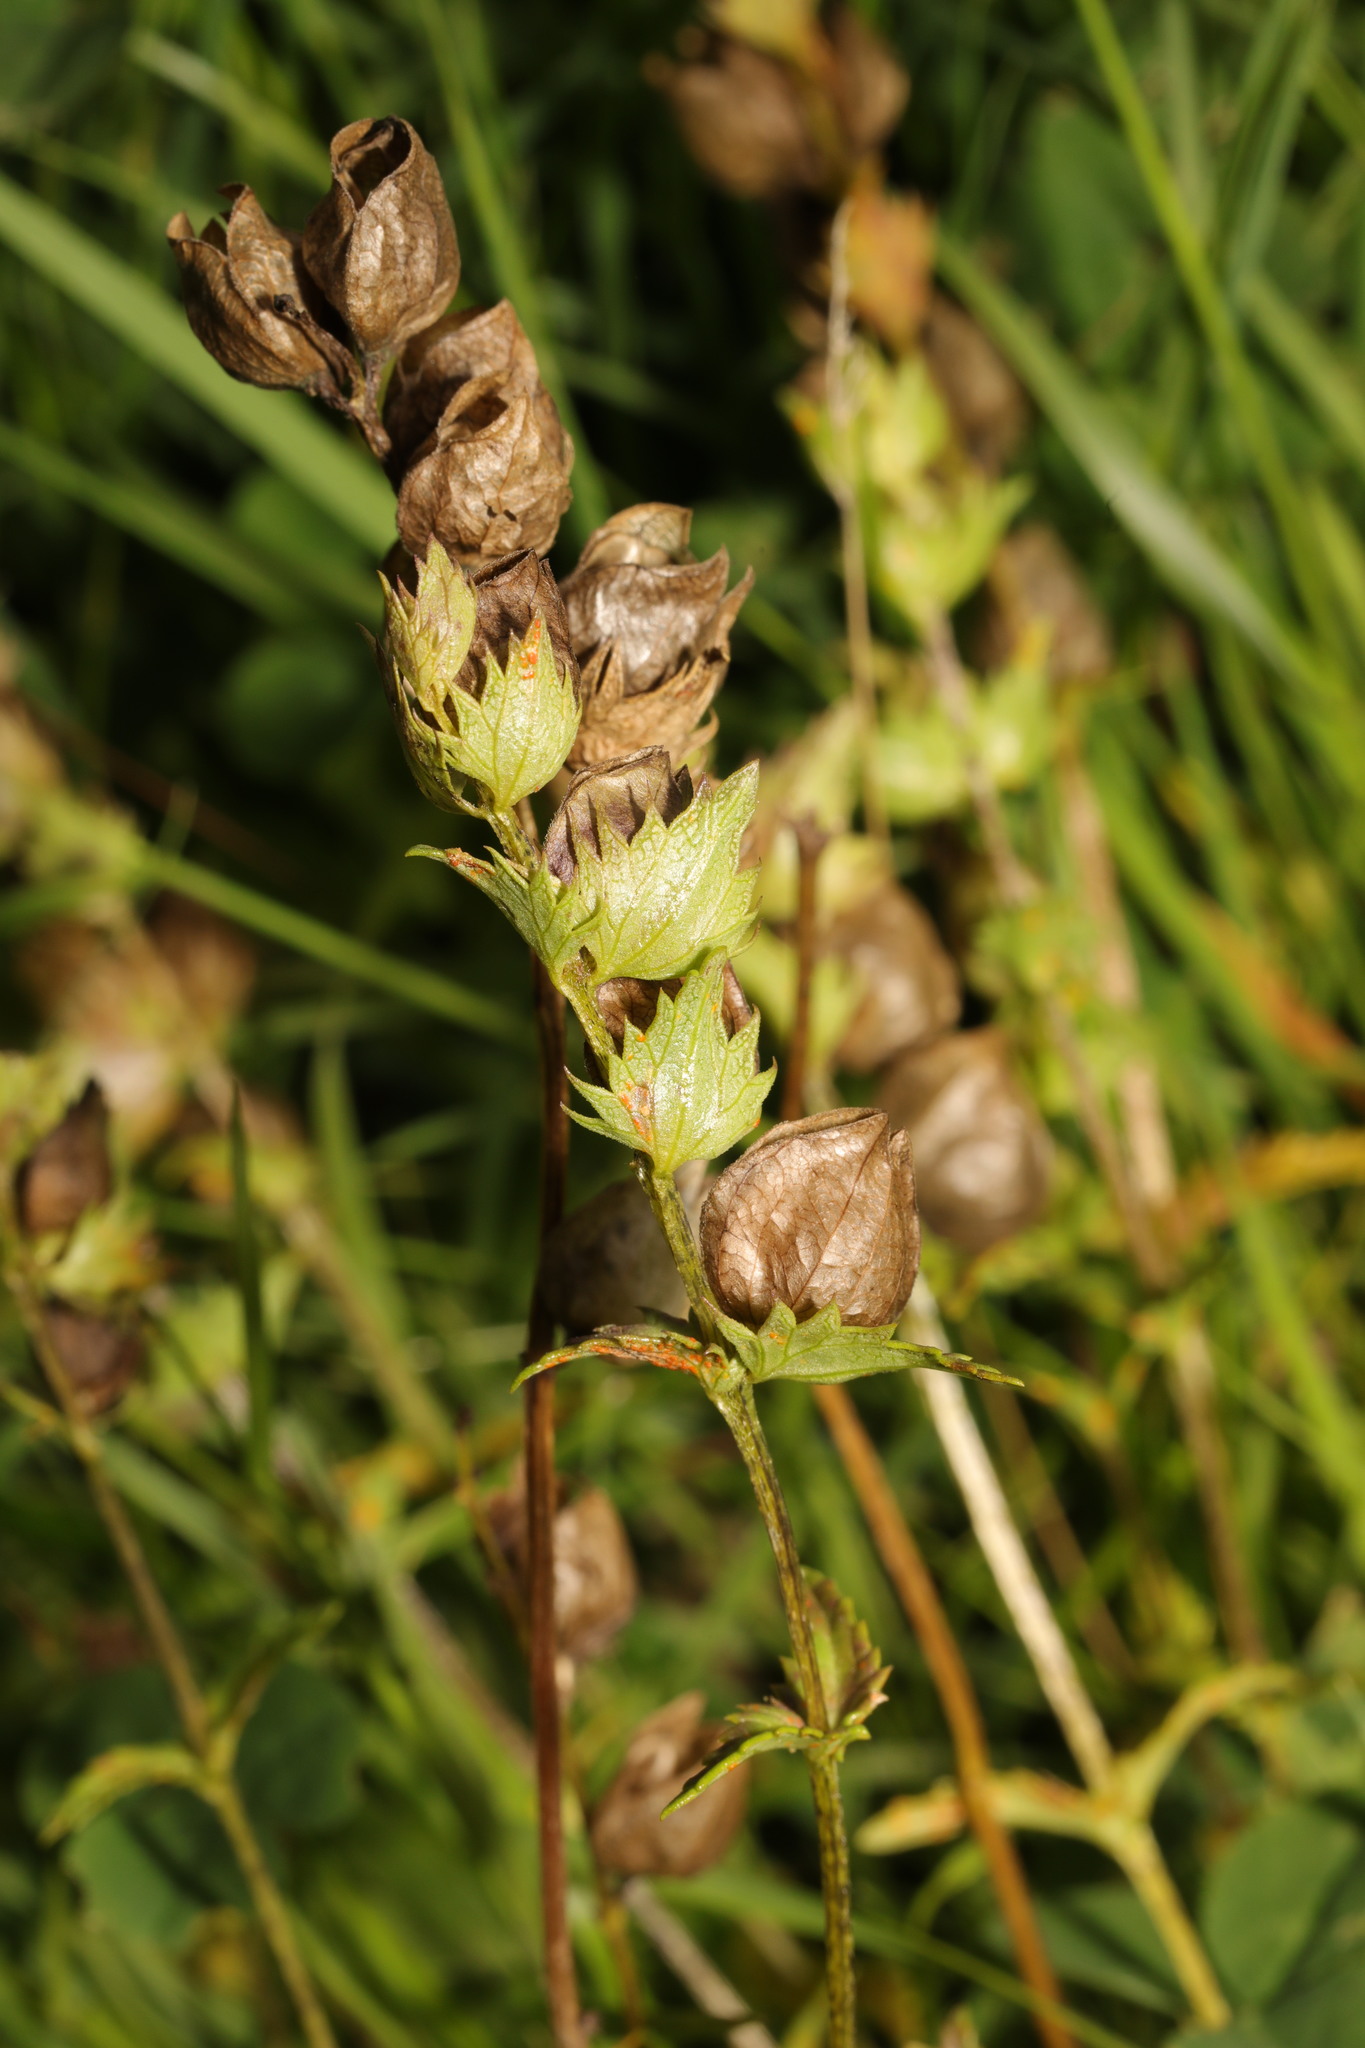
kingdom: Plantae
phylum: Tracheophyta
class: Magnoliopsida
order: Lamiales
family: Orobanchaceae
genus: Rhinanthus
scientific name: Rhinanthus minor
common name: Yellow-rattle
